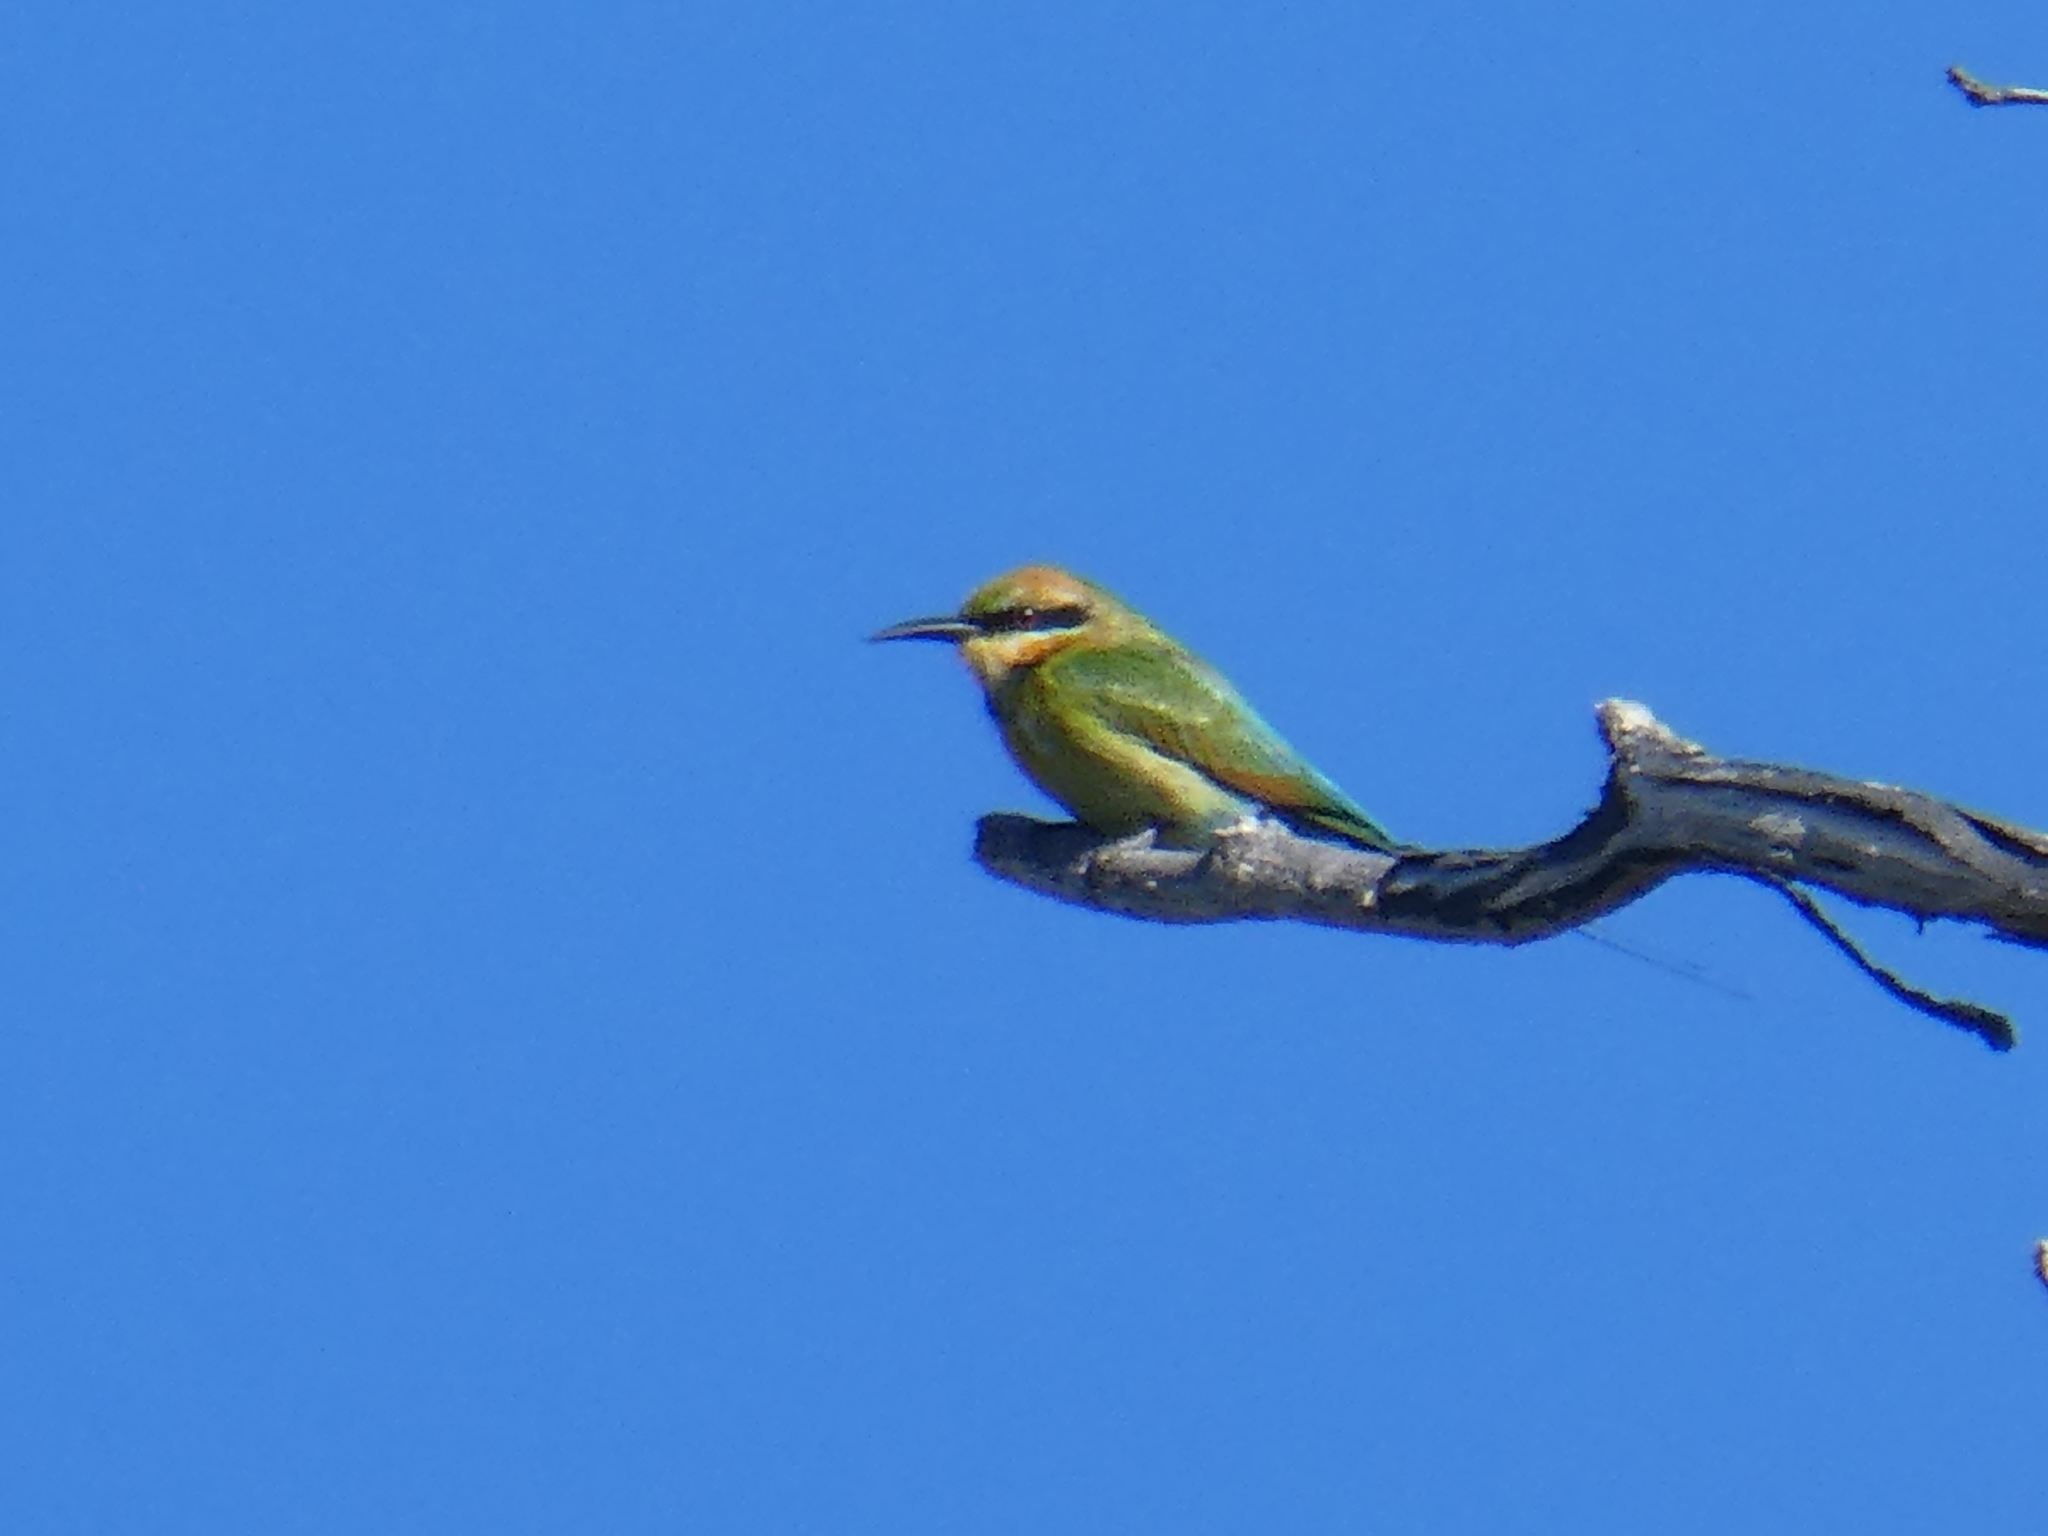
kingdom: Animalia
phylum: Chordata
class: Aves
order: Coraciiformes
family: Meropidae
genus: Merops
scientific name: Merops ornatus
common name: Rainbow bee-eater
